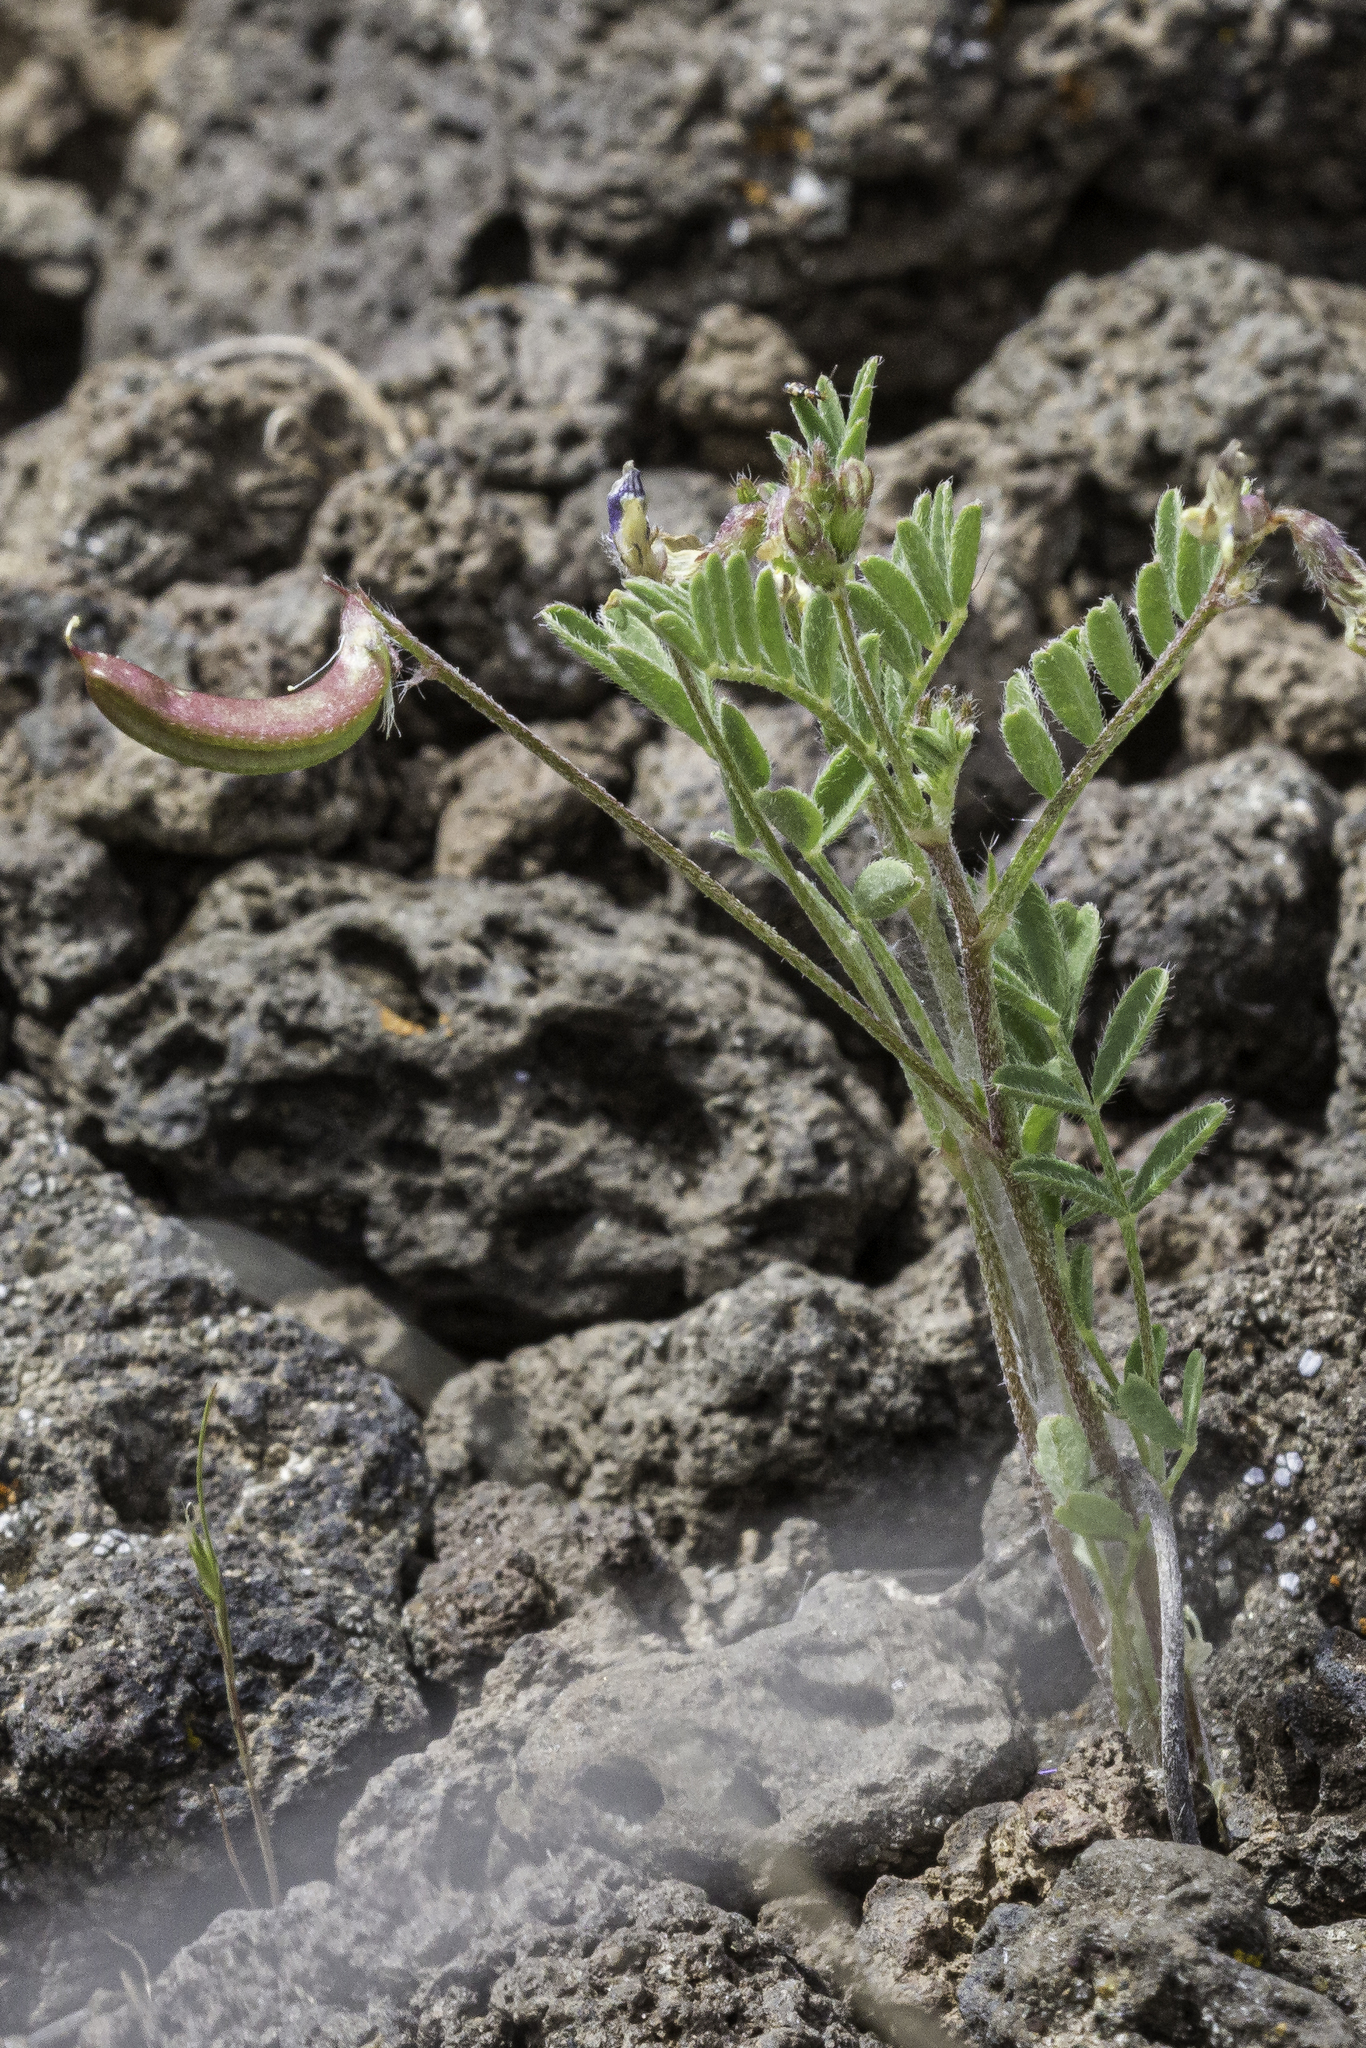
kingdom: Plantae
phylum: Tracheophyta
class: Magnoliopsida
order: Fabales
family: Fabaceae
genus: Astragalus
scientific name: Astragalus nuttallianus
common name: Smallflowered milkvetch
